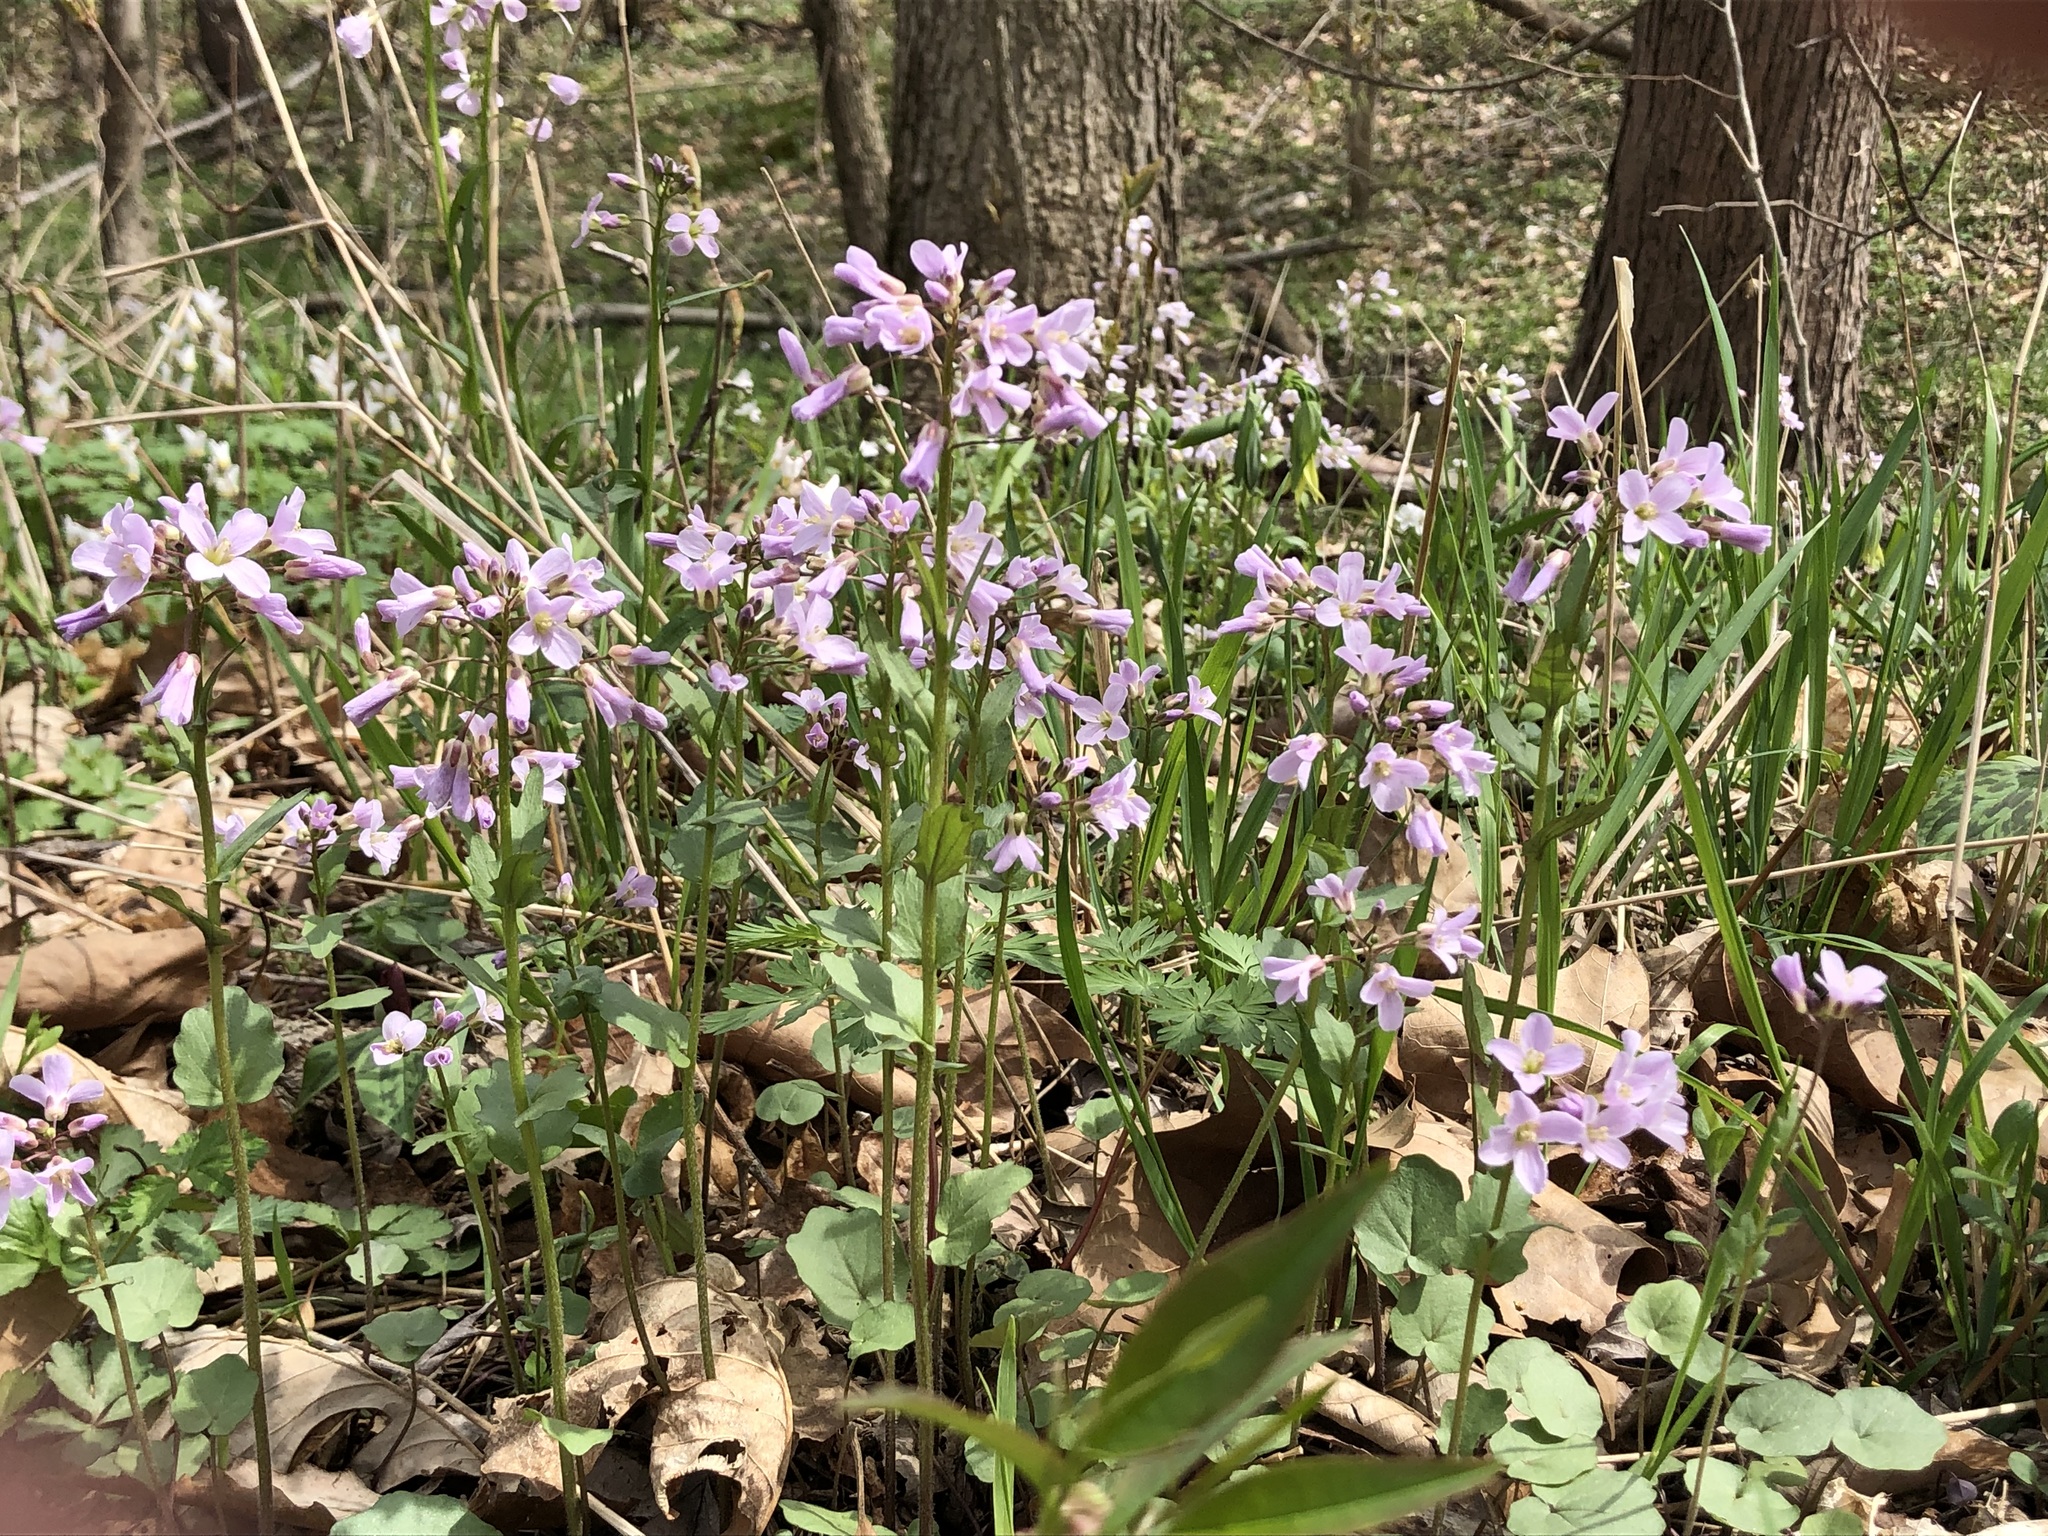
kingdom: Plantae
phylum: Tracheophyta
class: Magnoliopsida
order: Brassicales
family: Brassicaceae
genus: Cardamine
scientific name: Cardamine douglassii
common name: Purple cress
